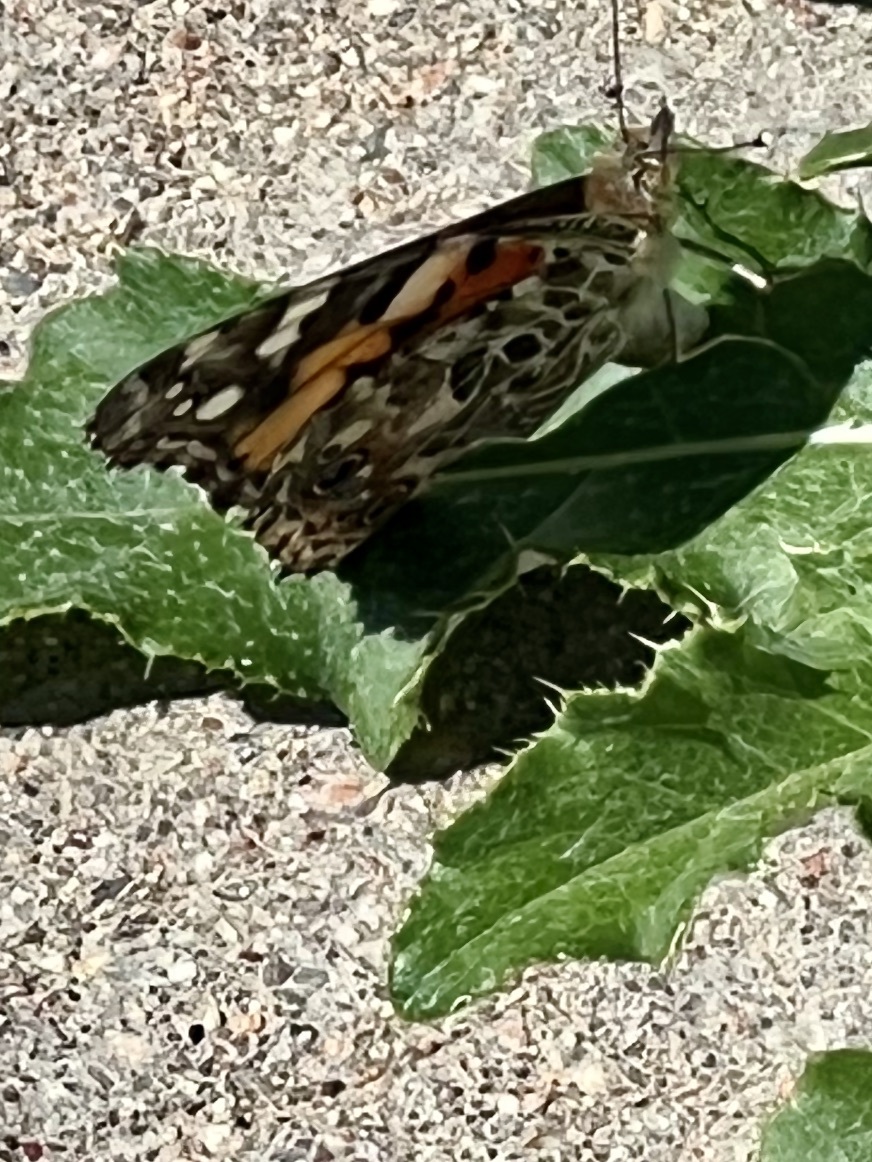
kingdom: Animalia
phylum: Arthropoda
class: Insecta
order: Lepidoptera
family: Nymphalidae
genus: Vanessa
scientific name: Vanessa cardui
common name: Painted lady
